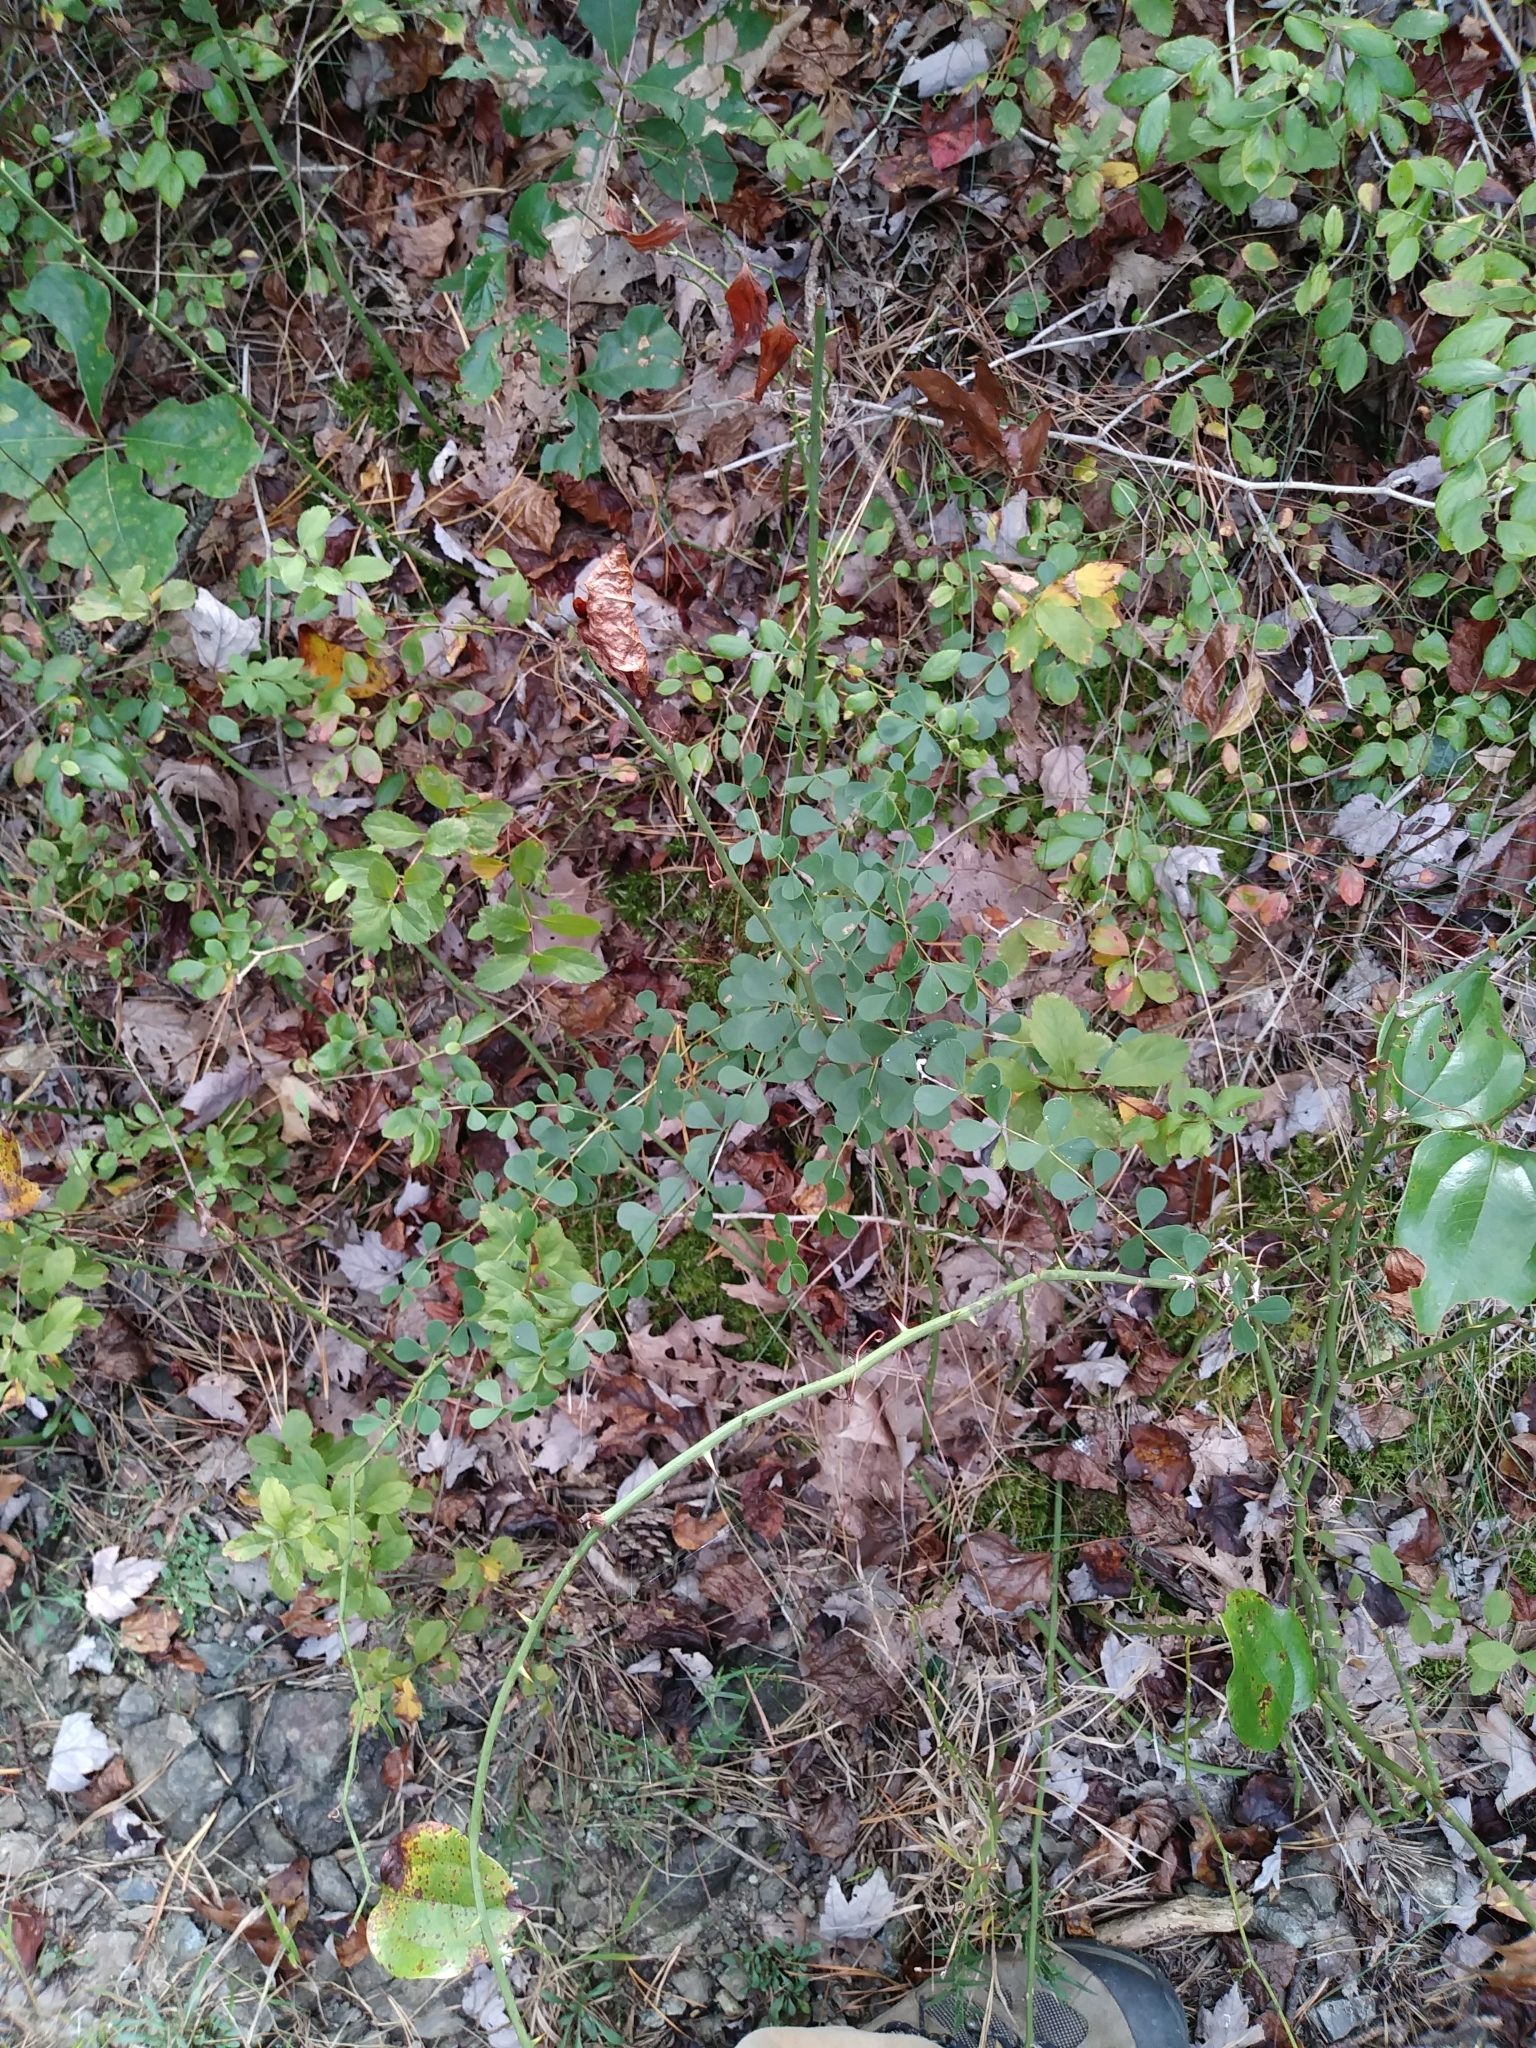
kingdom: Plantae
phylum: Tracheophyta
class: Magnoliopsida
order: Fabales
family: Fabaceae
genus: Baptisia
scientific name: Baptisia tinctoria
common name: Wild indigo
